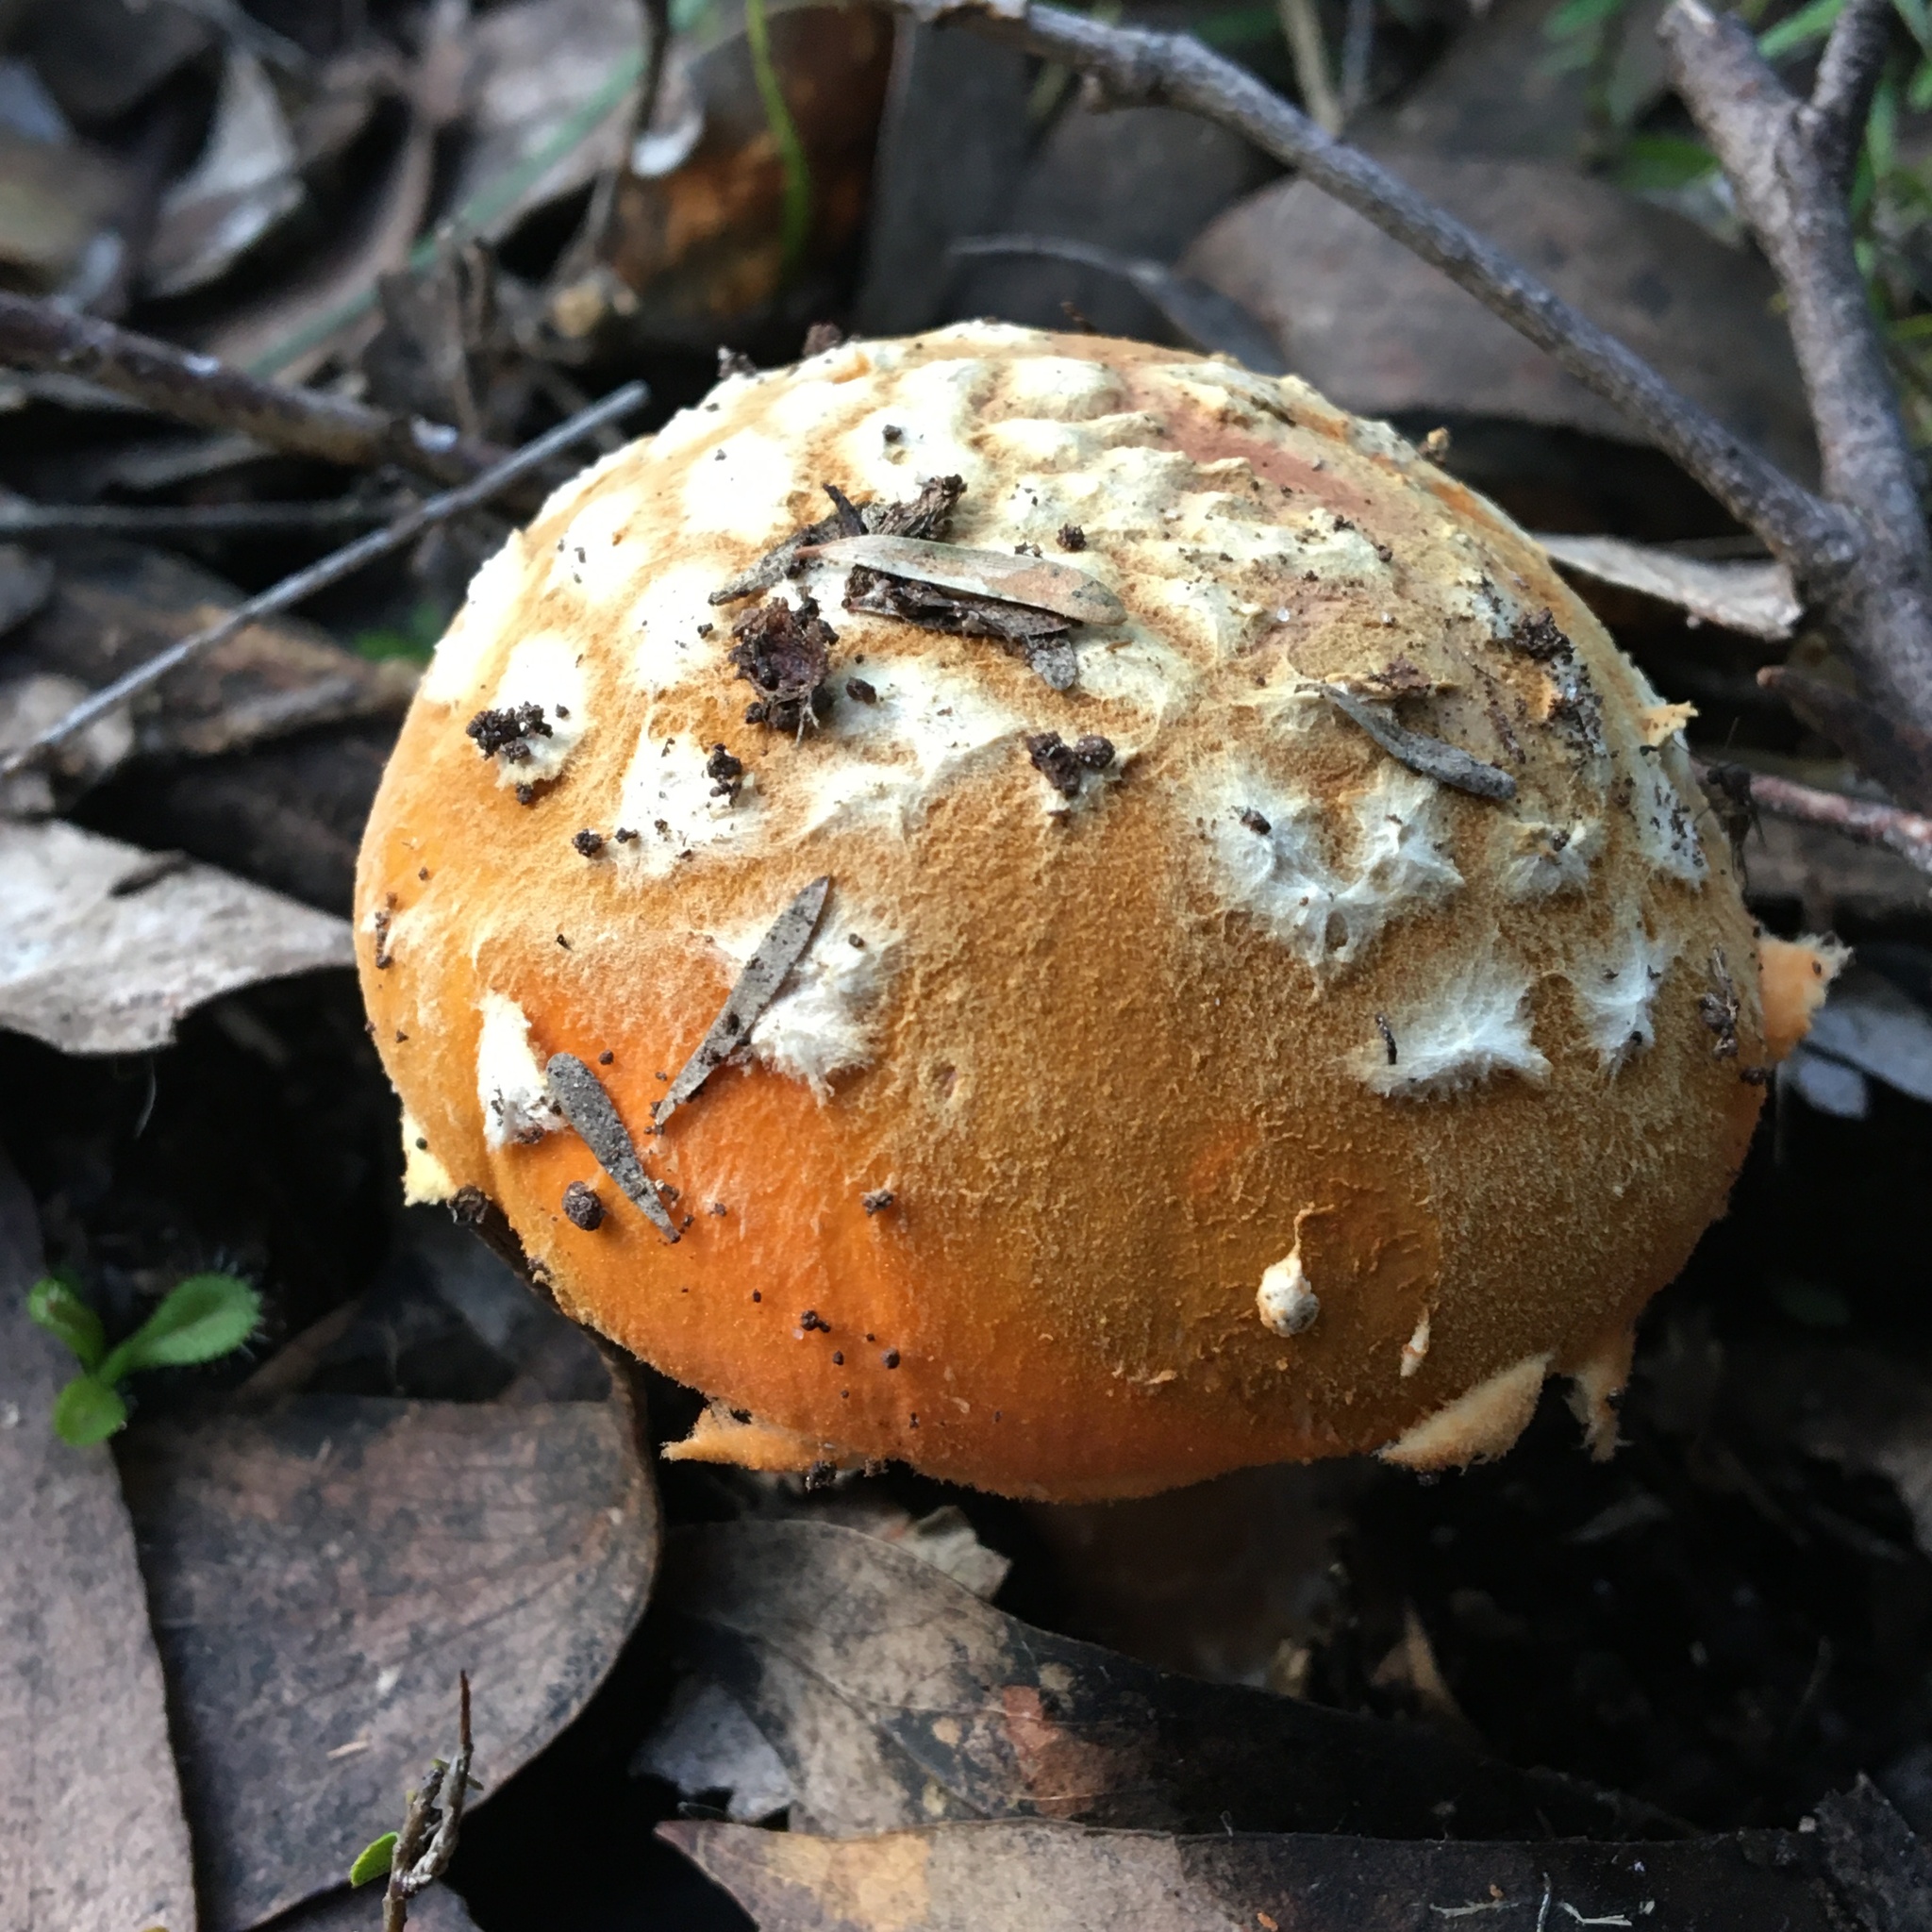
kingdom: Fungi
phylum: Basidiomycota
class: Agaricomycetes
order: Agaricales
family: Amanitaceae
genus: Amanita
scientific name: Amanita armeniaca
